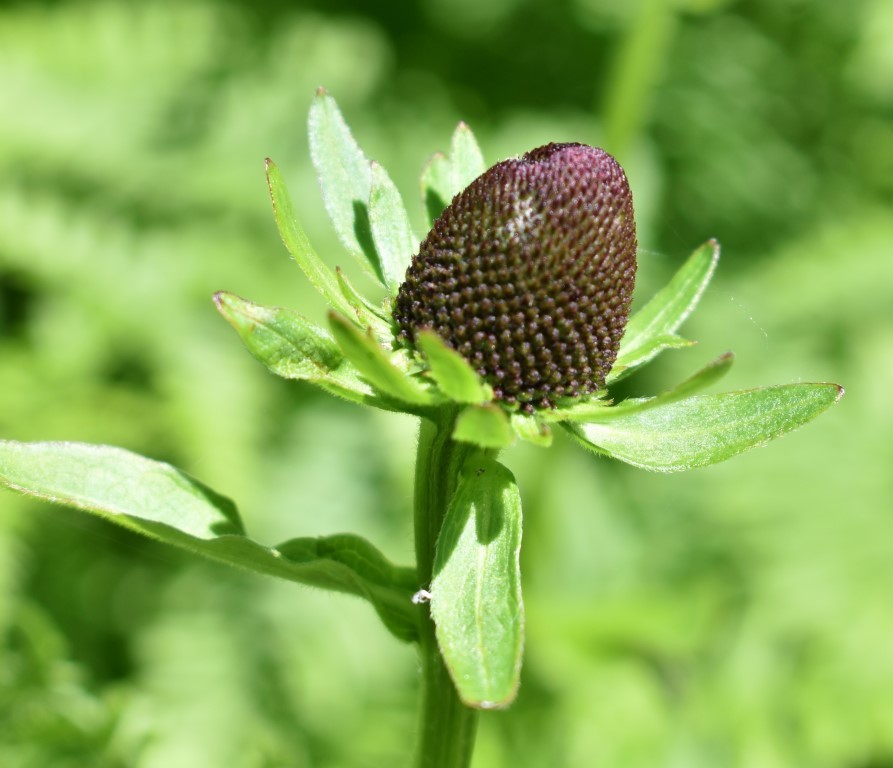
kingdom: Plantae
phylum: Tracheophyta
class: Magnoliopsida
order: Asterales
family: Asteraceae
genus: Rudbeckia
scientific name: Rudbeckia occidentalis
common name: Western coneflower
